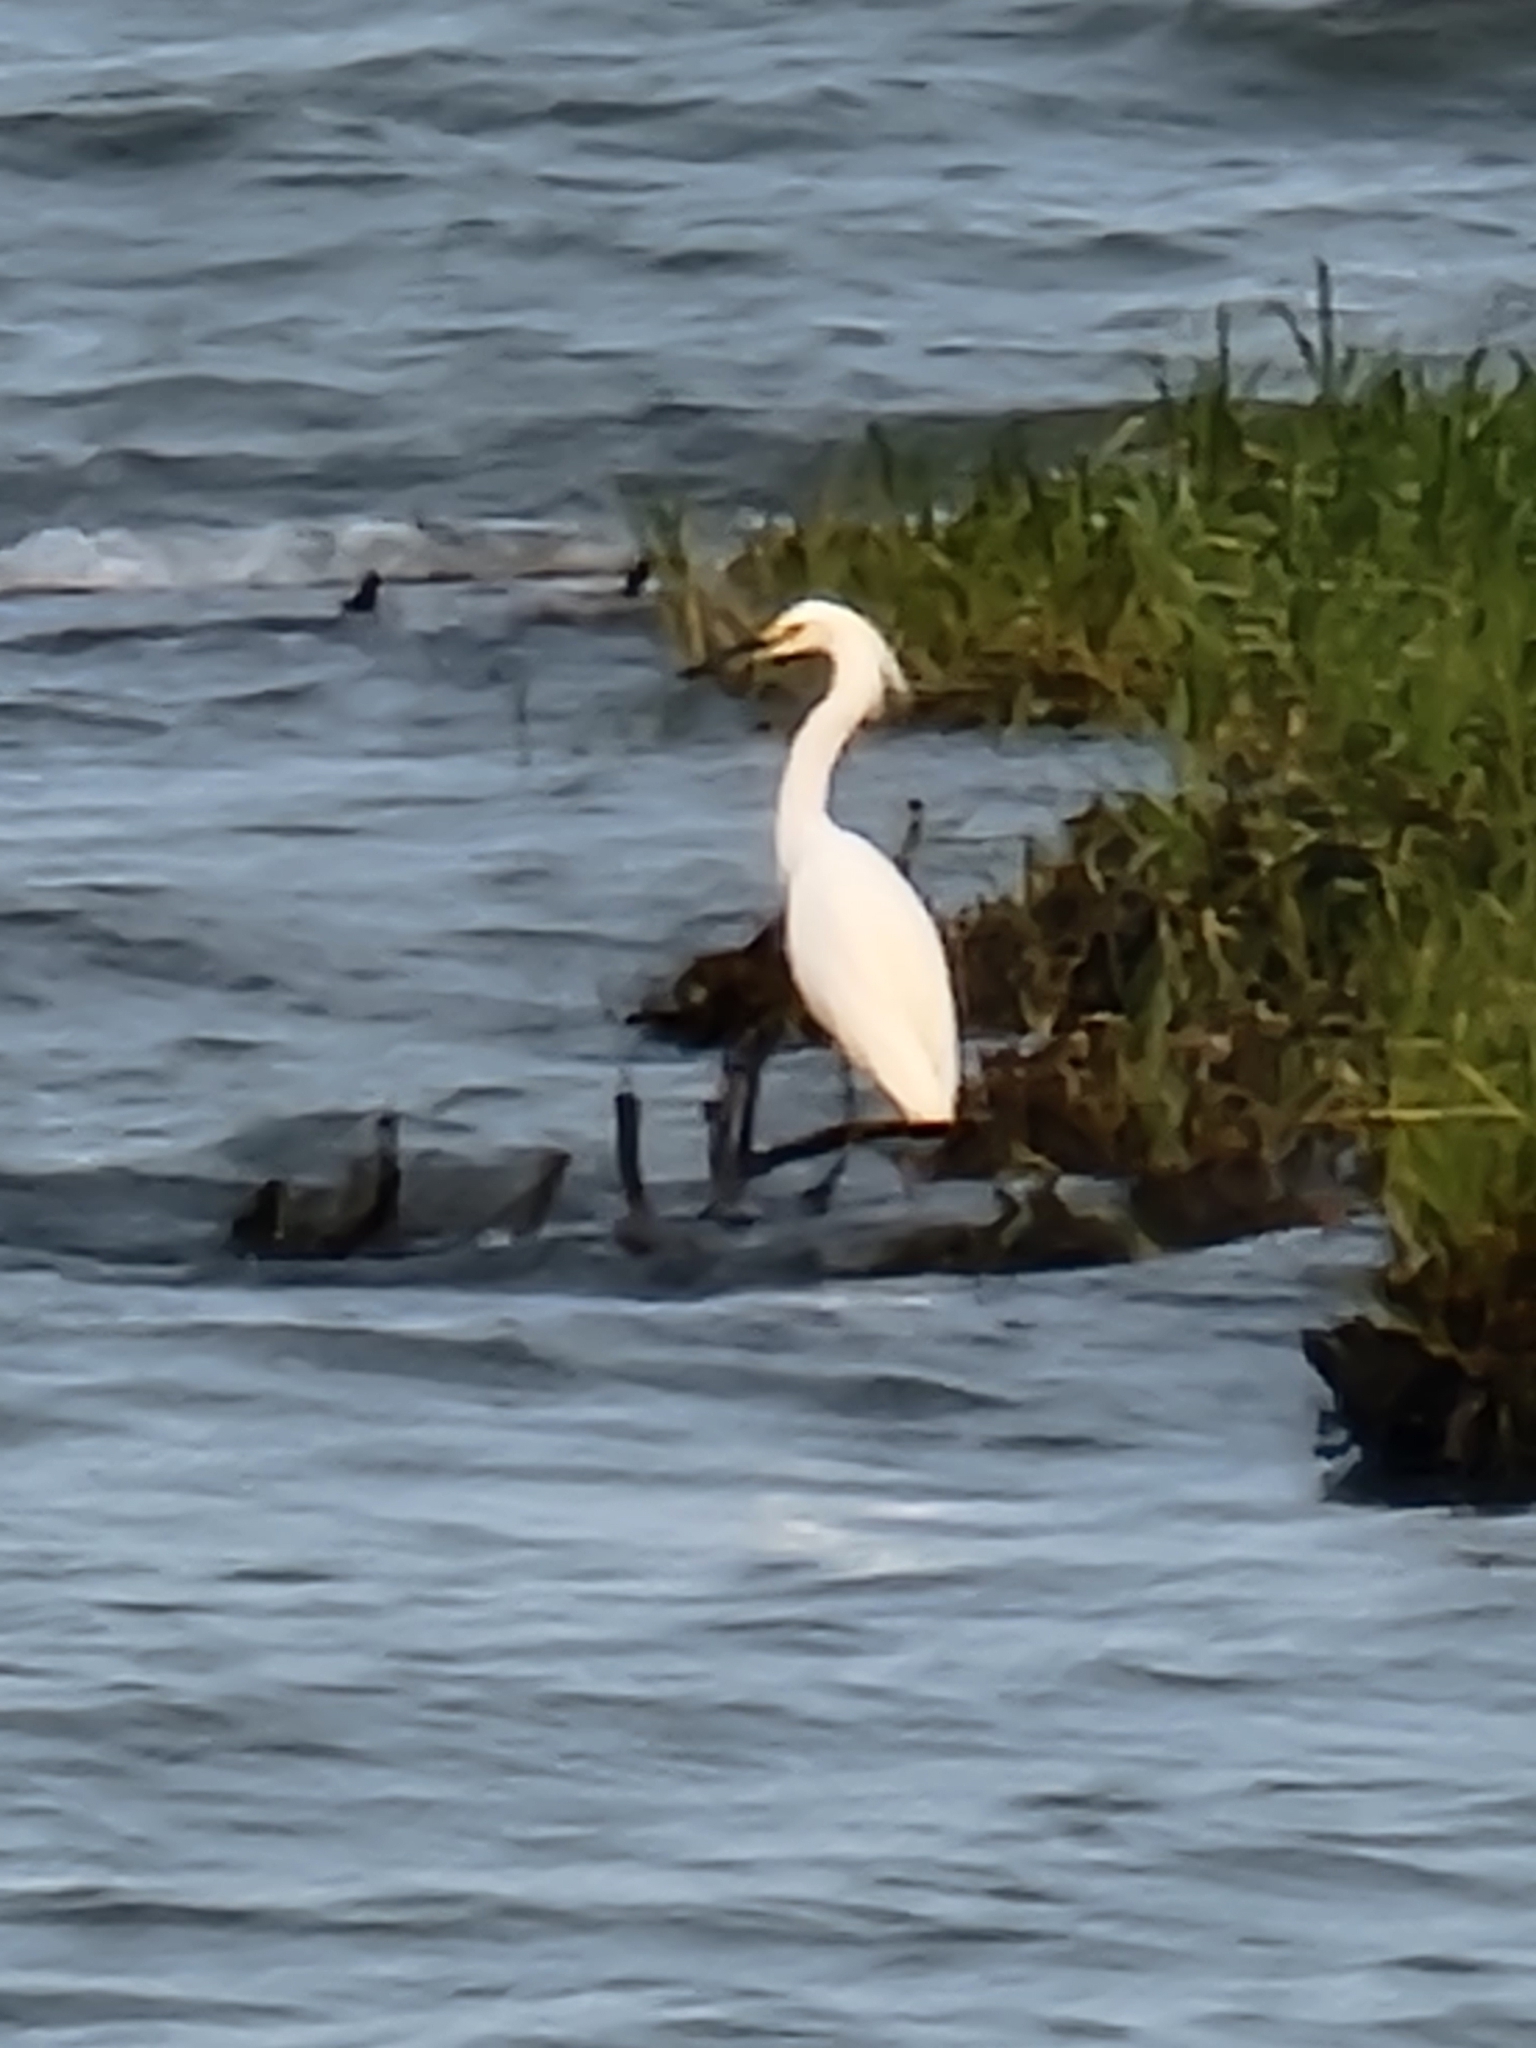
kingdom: Animalia
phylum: Chordata
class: Aves
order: Pelecaniformes
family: Ardeidae
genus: Egretta
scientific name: Egretta thula
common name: Snowy egret
